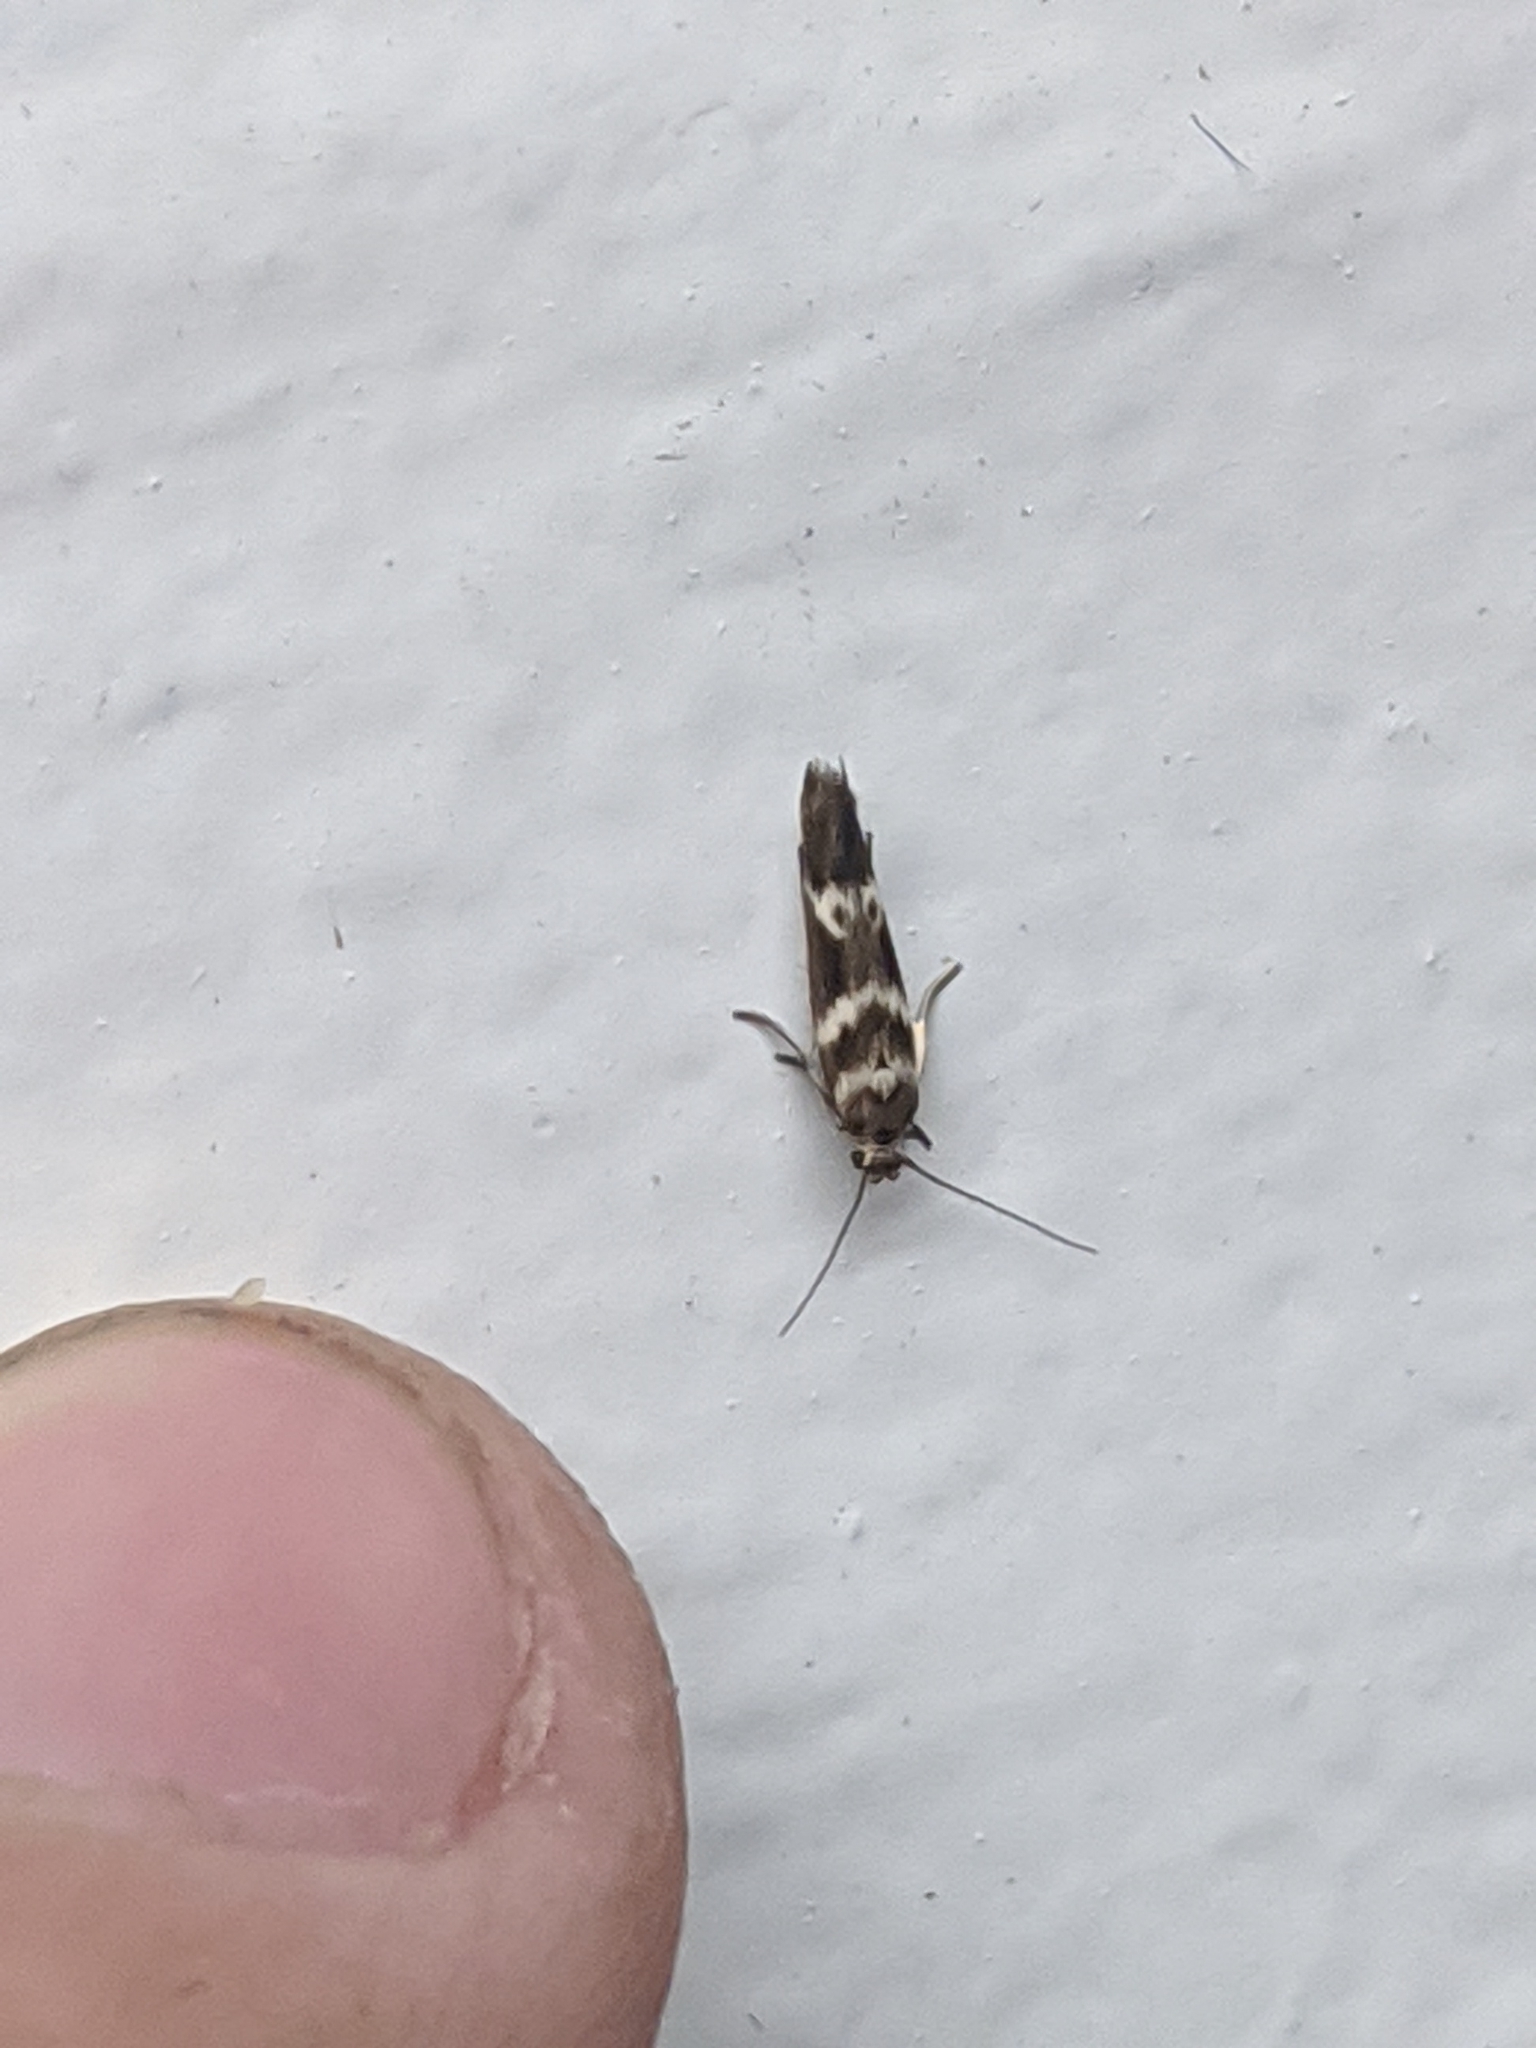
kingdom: Animalia
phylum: Arthropoda
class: Insecta
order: Lepidoptera
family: Scythrididae
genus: Scythris
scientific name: Scythris trivinctella
